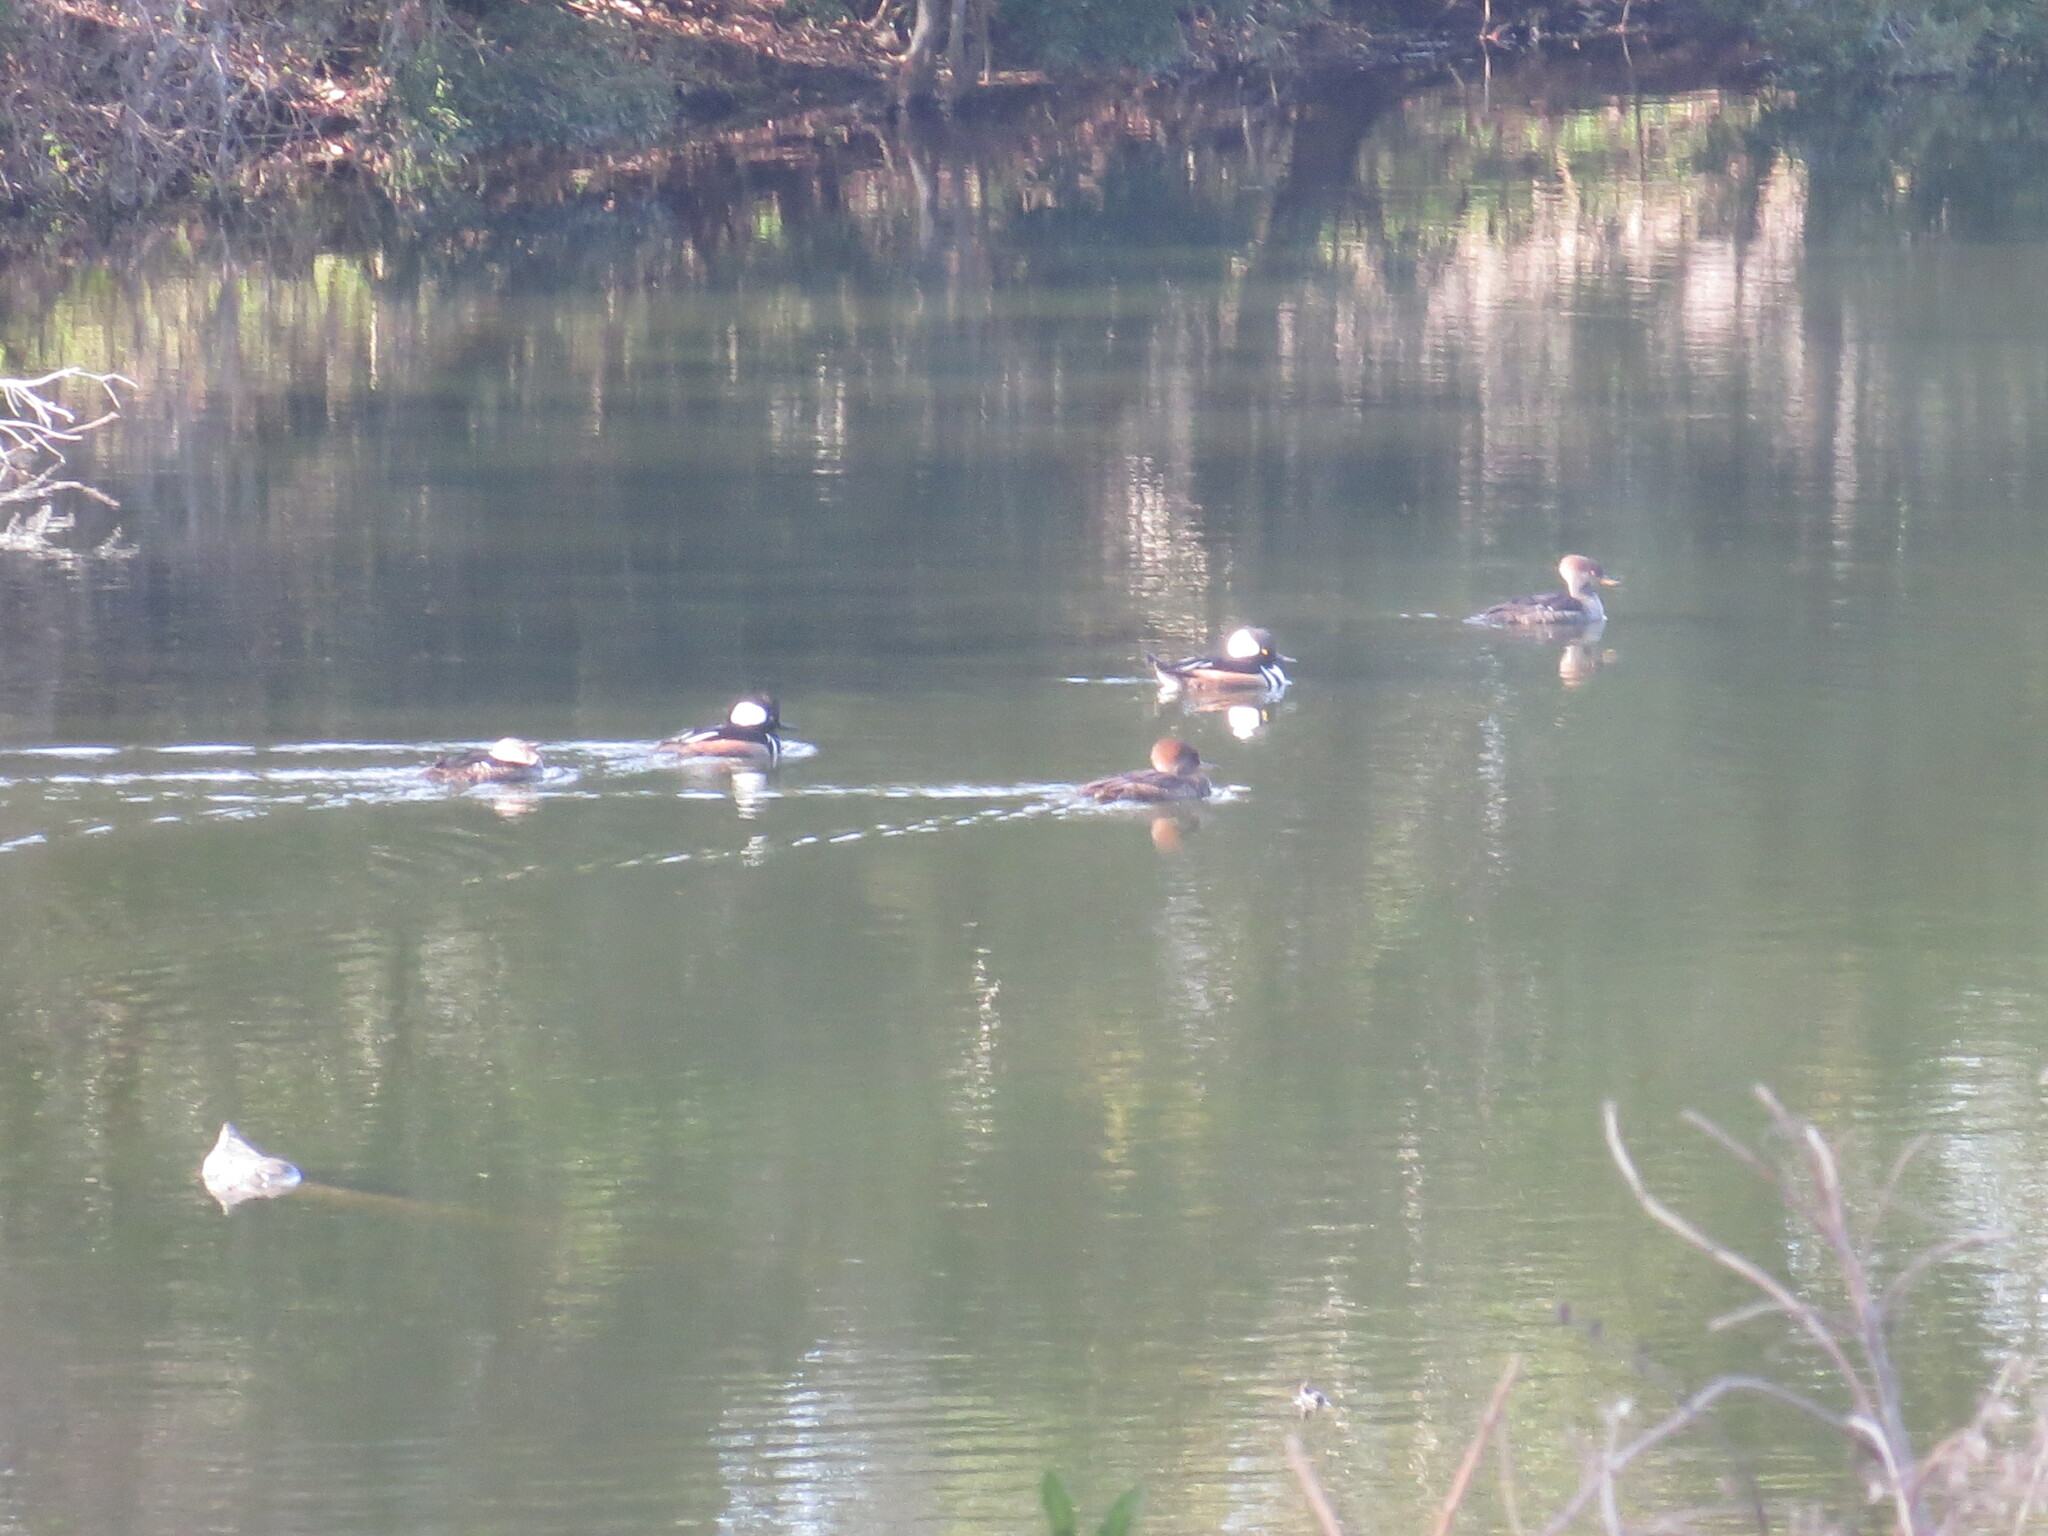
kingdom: Animalia
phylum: Chordata
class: Aves
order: Anseriformes
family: Anatidae
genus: Lophodytes
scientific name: Lophodytes cucullatus
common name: Hooded merganser
